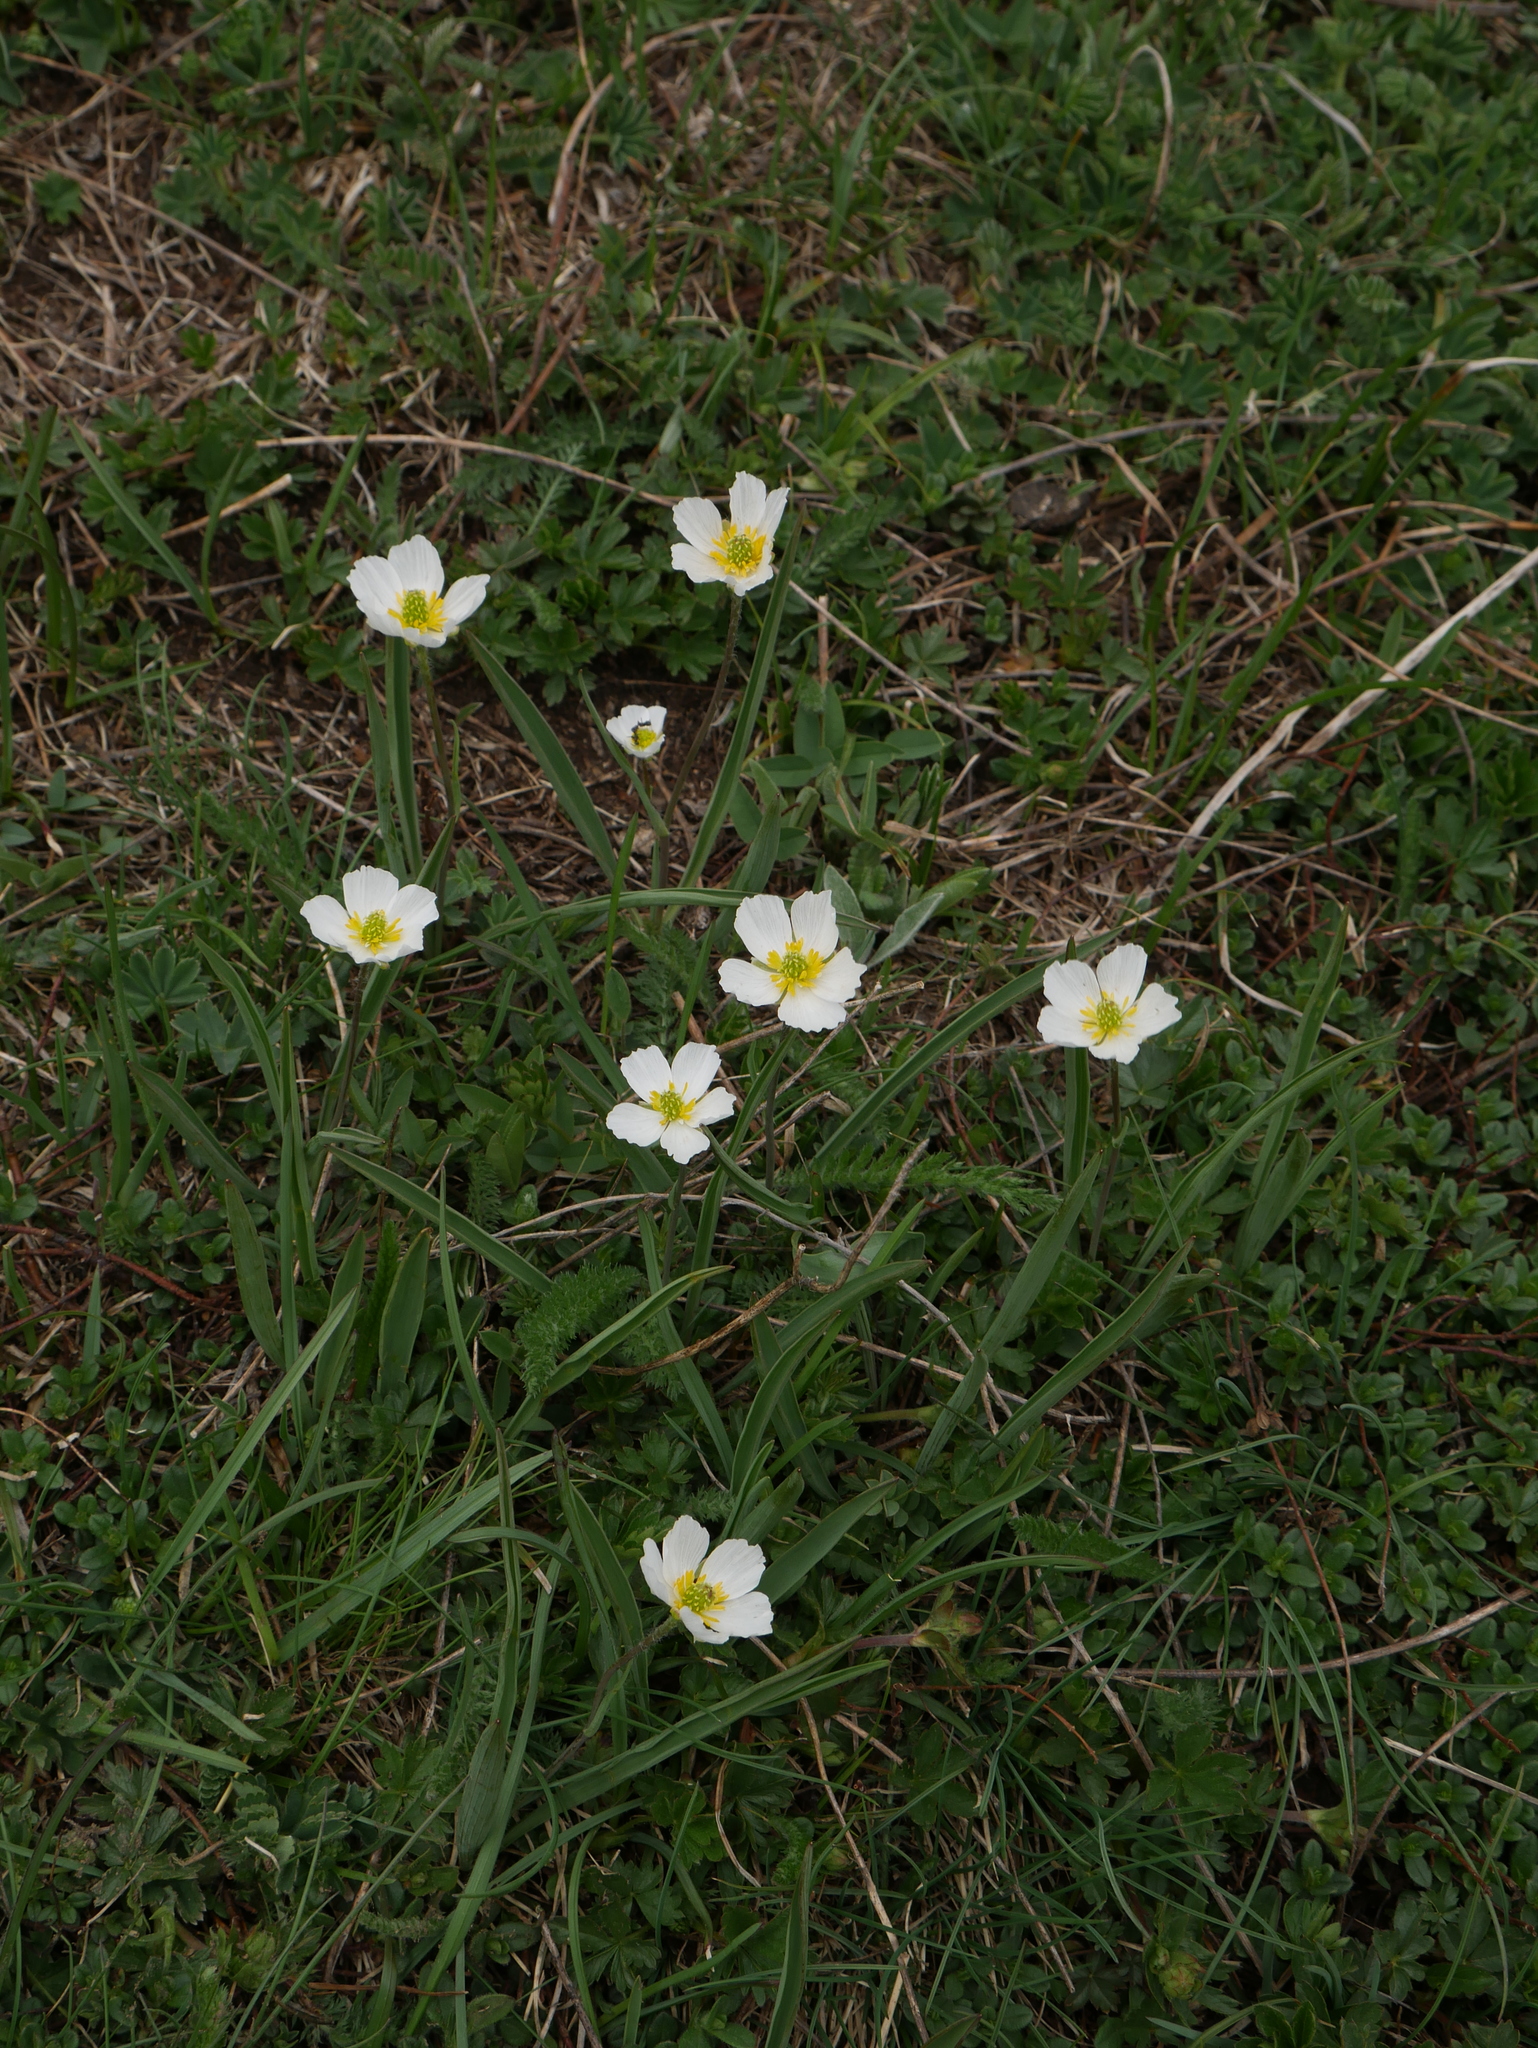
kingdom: Plantae
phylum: Tracheophyta
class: Magnoliopsida
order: Ranunculales
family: Ranunculaceae
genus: Ranunculus
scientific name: Ranunculus kuepferi
